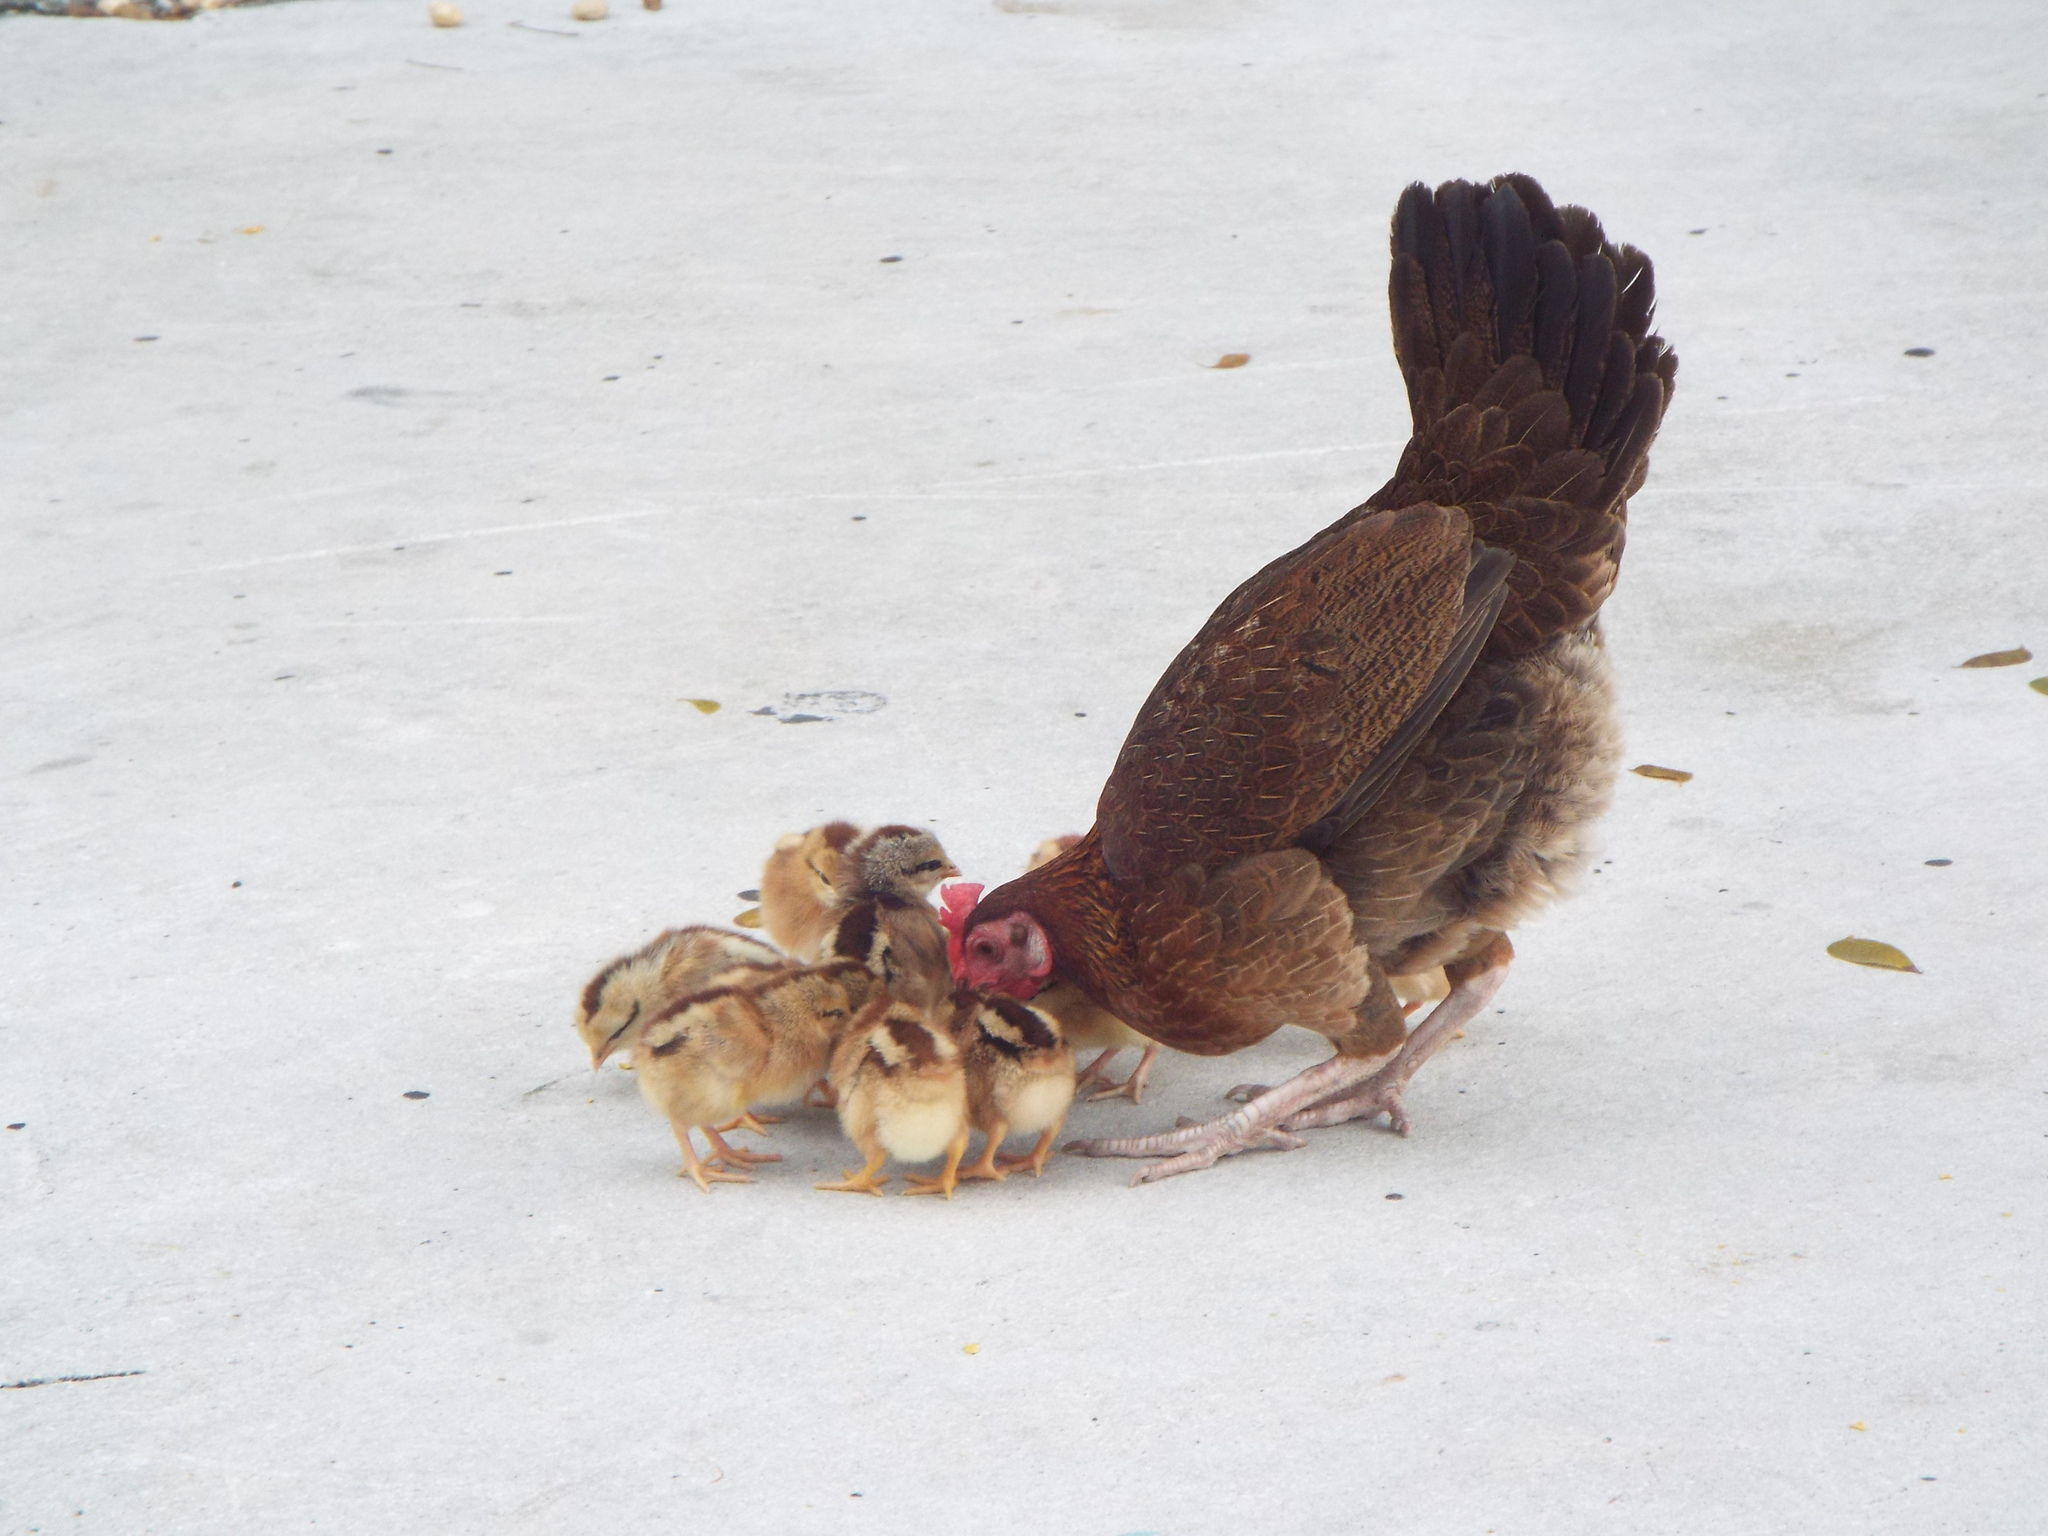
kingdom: Animalia
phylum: Chordata
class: Aves
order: Galliformes
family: Phasianidae
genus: Gallus
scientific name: Gallus gallus
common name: Red junglefowl
